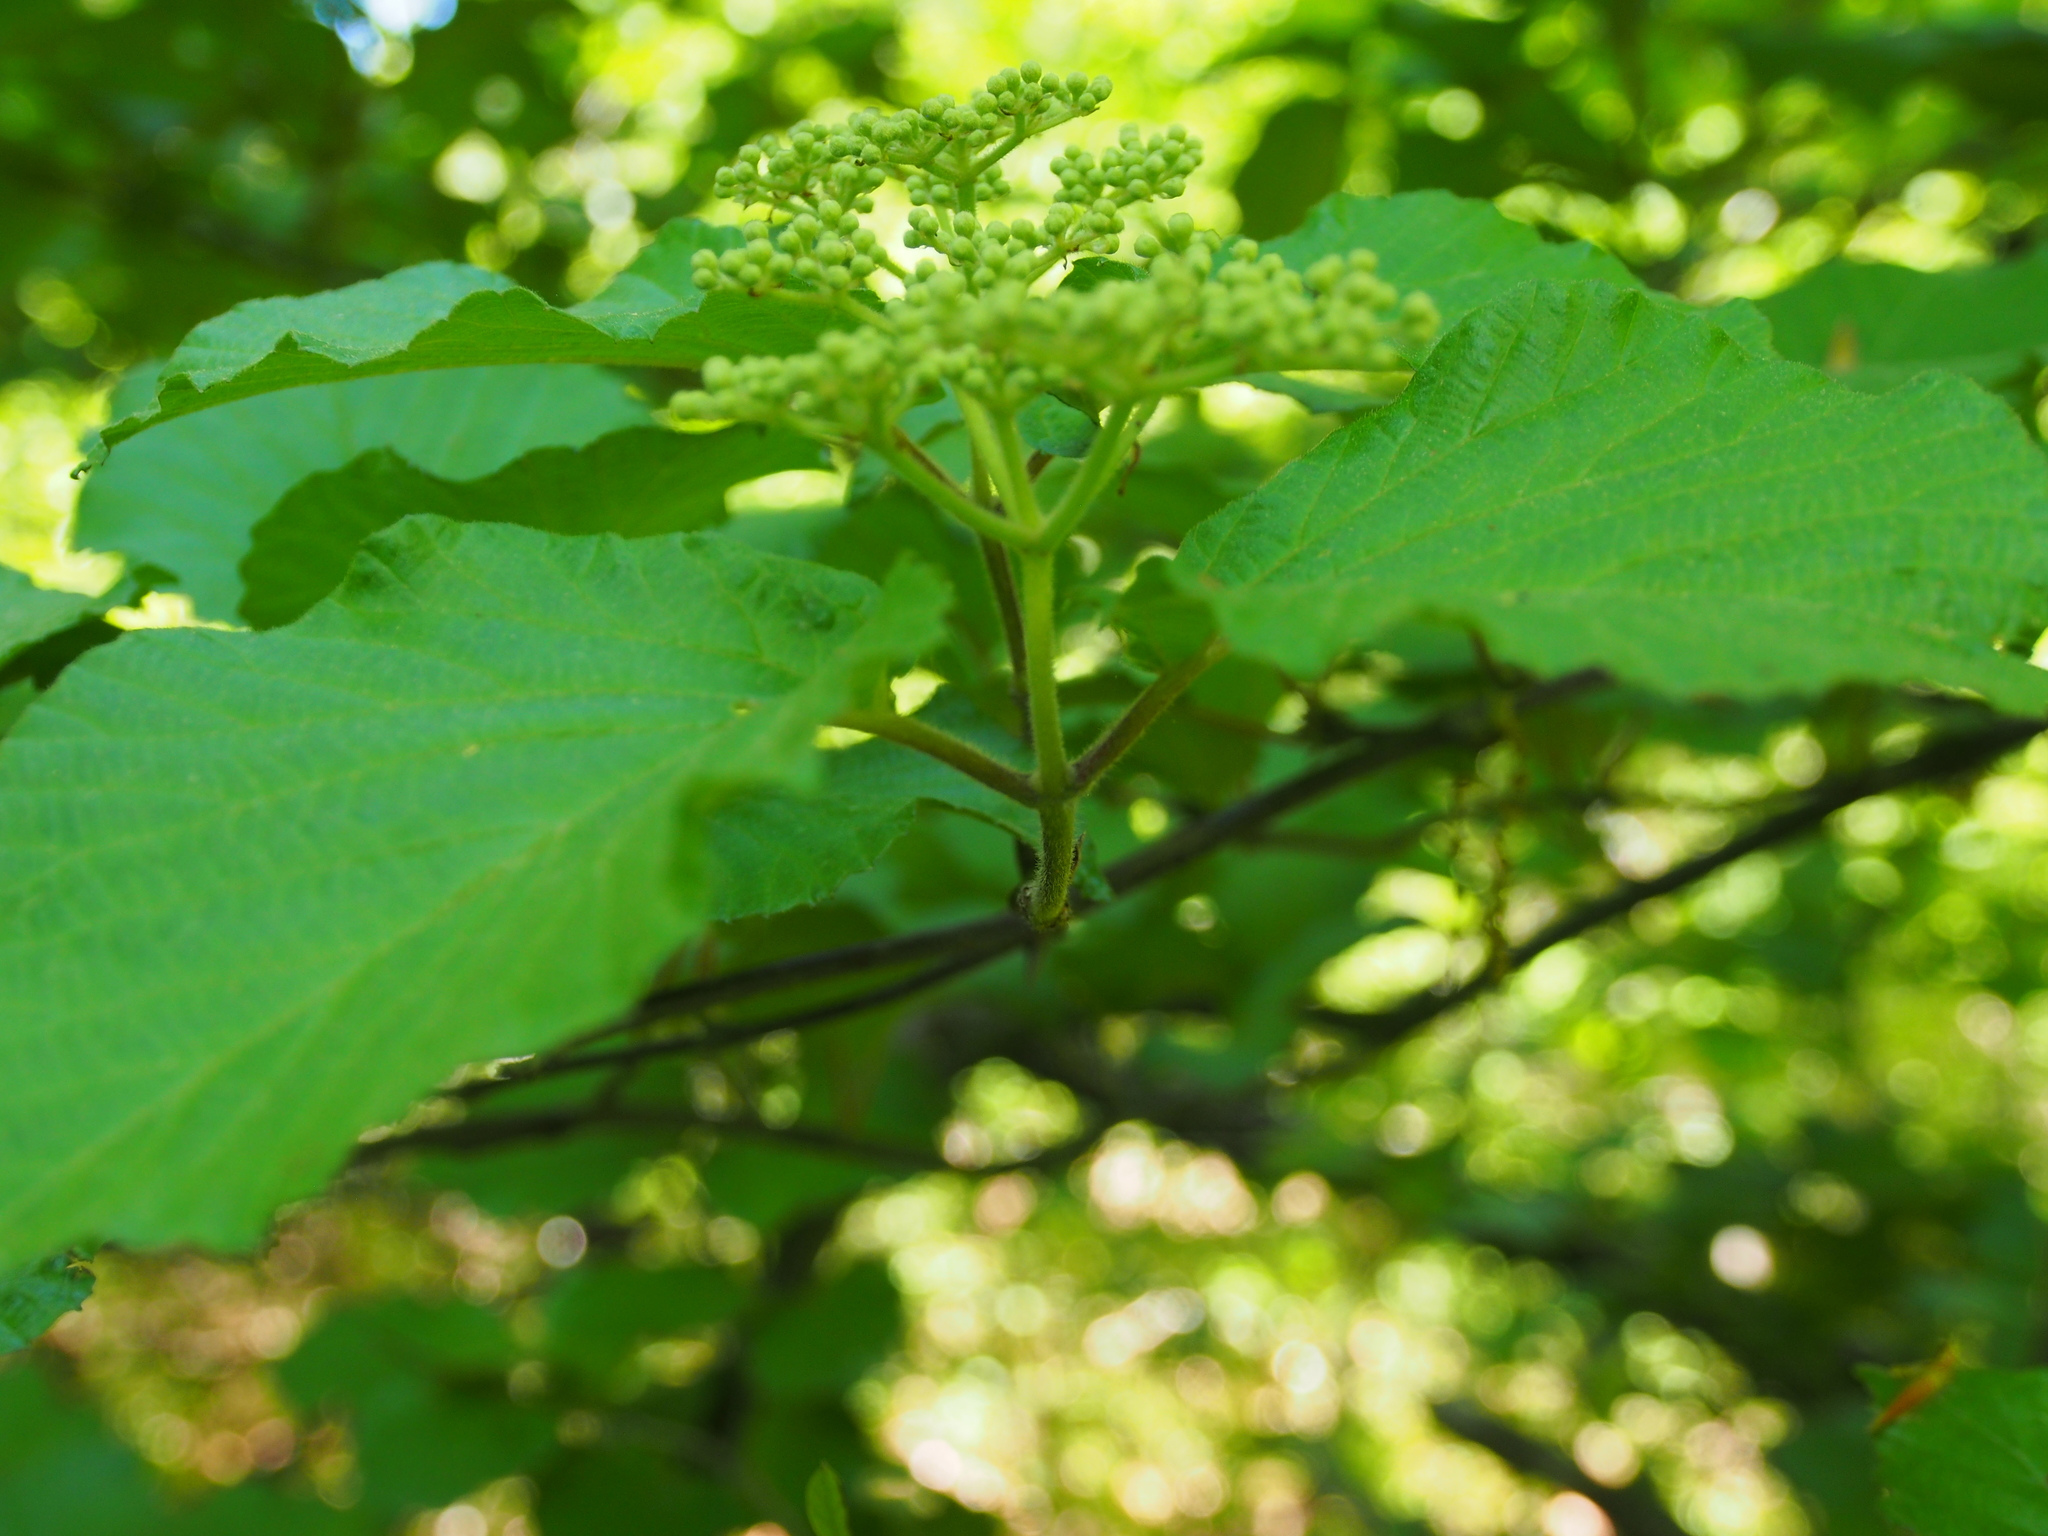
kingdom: Plantae
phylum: Tracheophyta
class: Magnoliopsida
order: Dipsacales
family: Viburnaceae
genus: Viburnum
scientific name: Viburnum dilatatum
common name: Linden arrowwood
